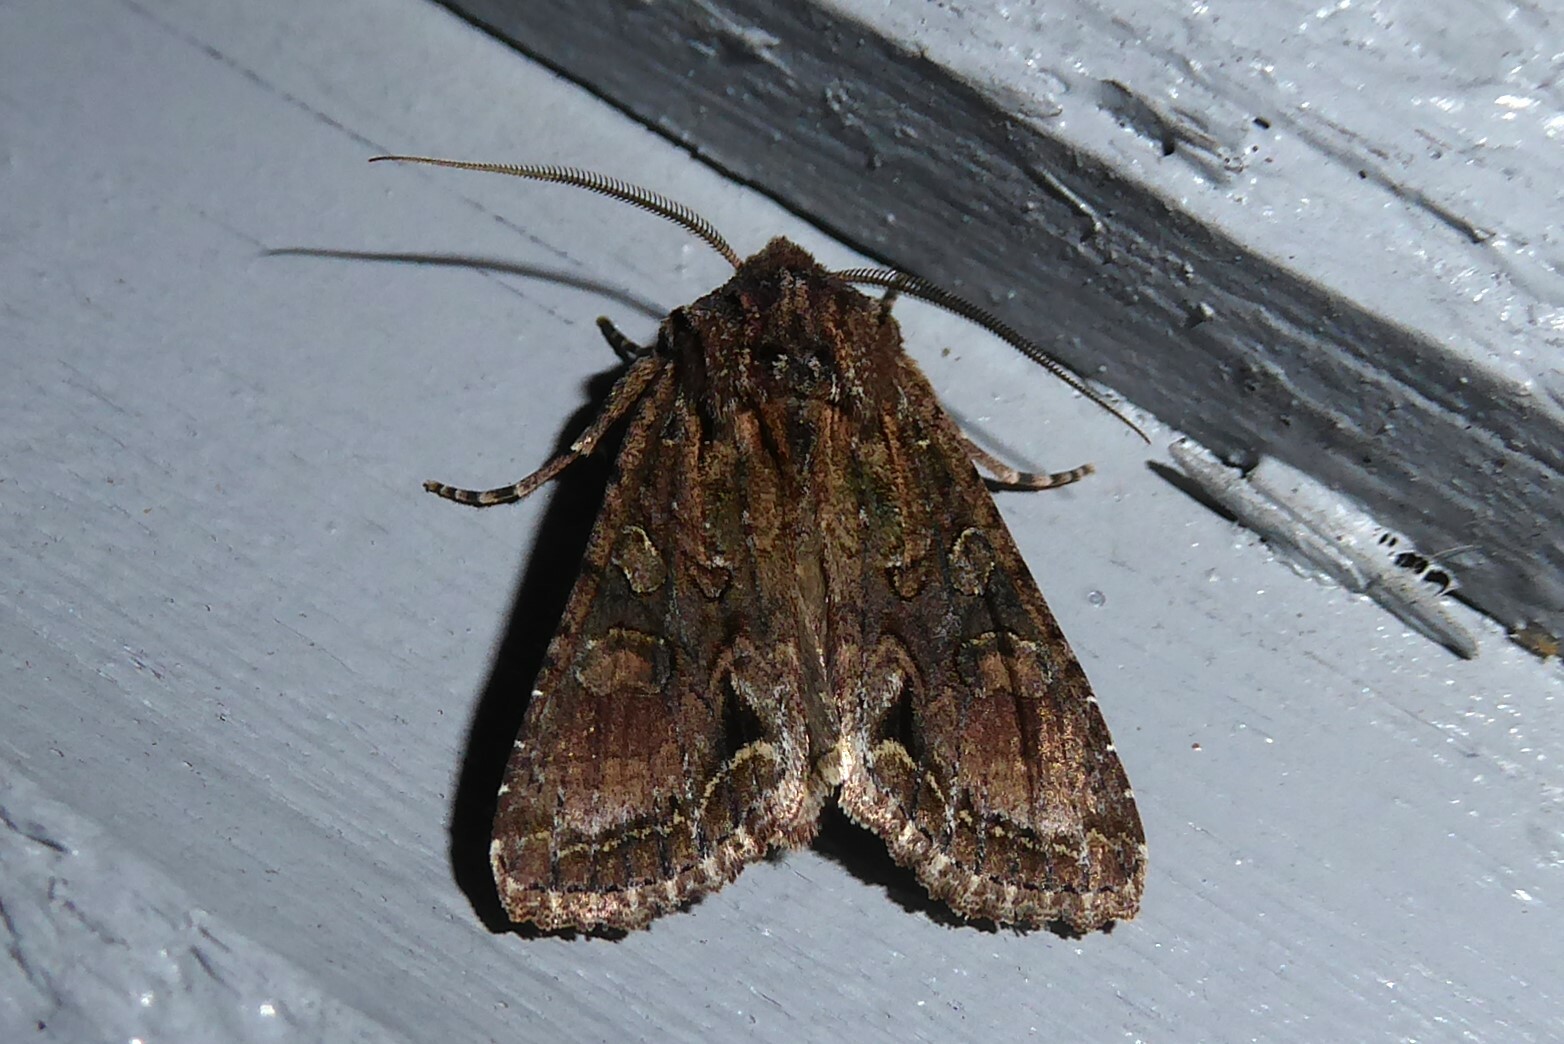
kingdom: Animalia
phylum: Arthropoda
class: Insecta
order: Lepidoptera
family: Noctuidae
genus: Ichneutica
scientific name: Ichneutica mutans
